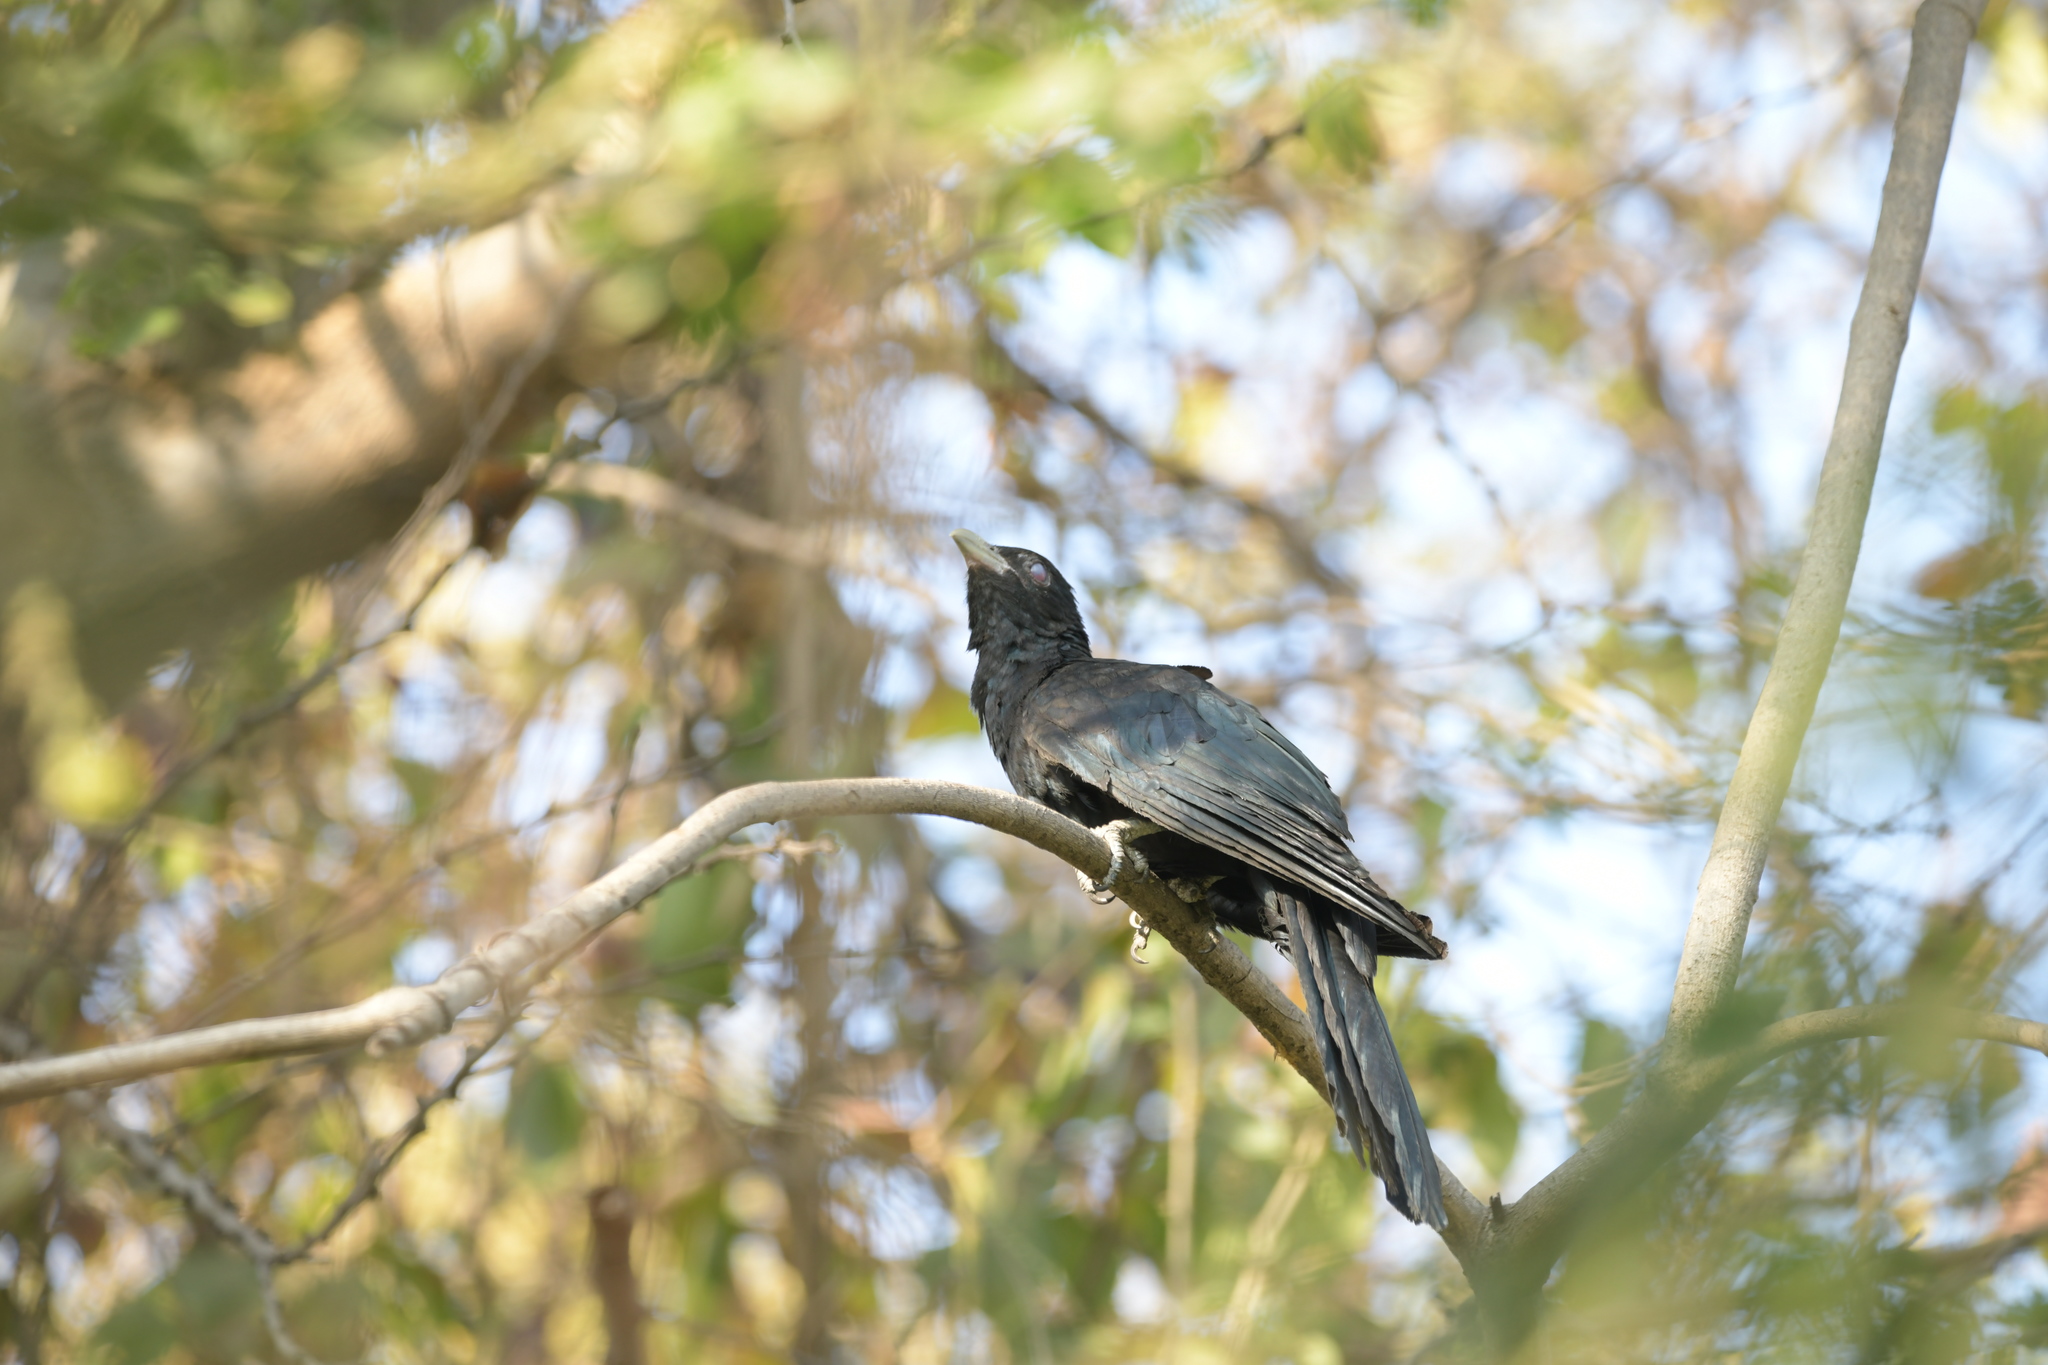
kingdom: Animalia
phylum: Chordata
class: Aves
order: Cuculiformes
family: Cuculidae
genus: Eudynamys
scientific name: Eudynamys scolopaceus
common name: Asian koel
